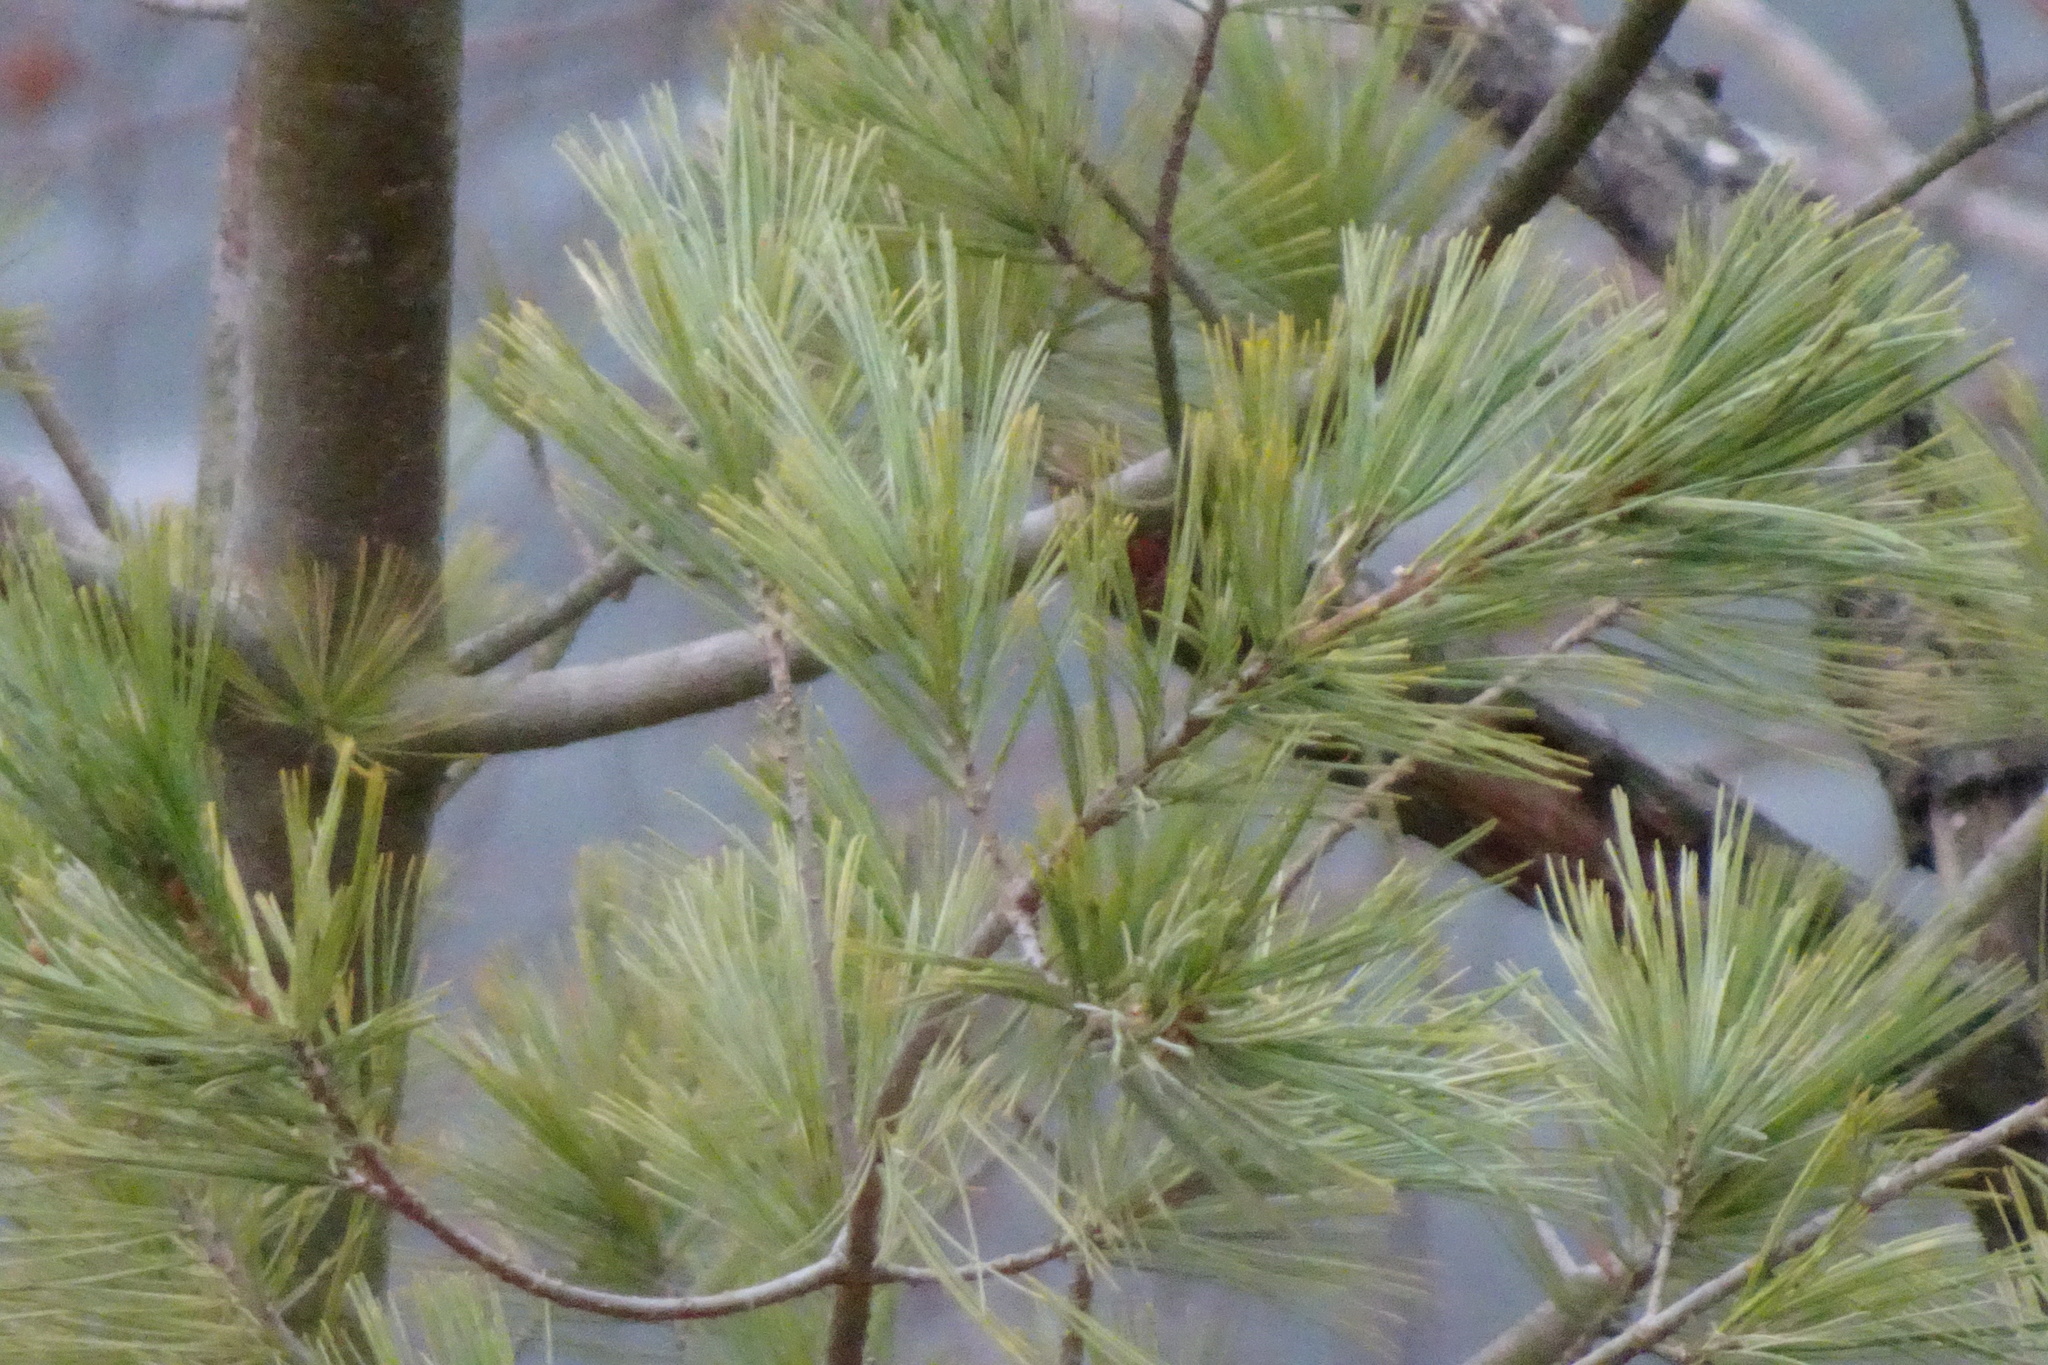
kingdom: Plantae
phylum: Tracheophyta
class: Pinopsida
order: Pinales
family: Pinaceae
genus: Pinus
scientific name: Pinus strobus
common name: Weymouth pine
